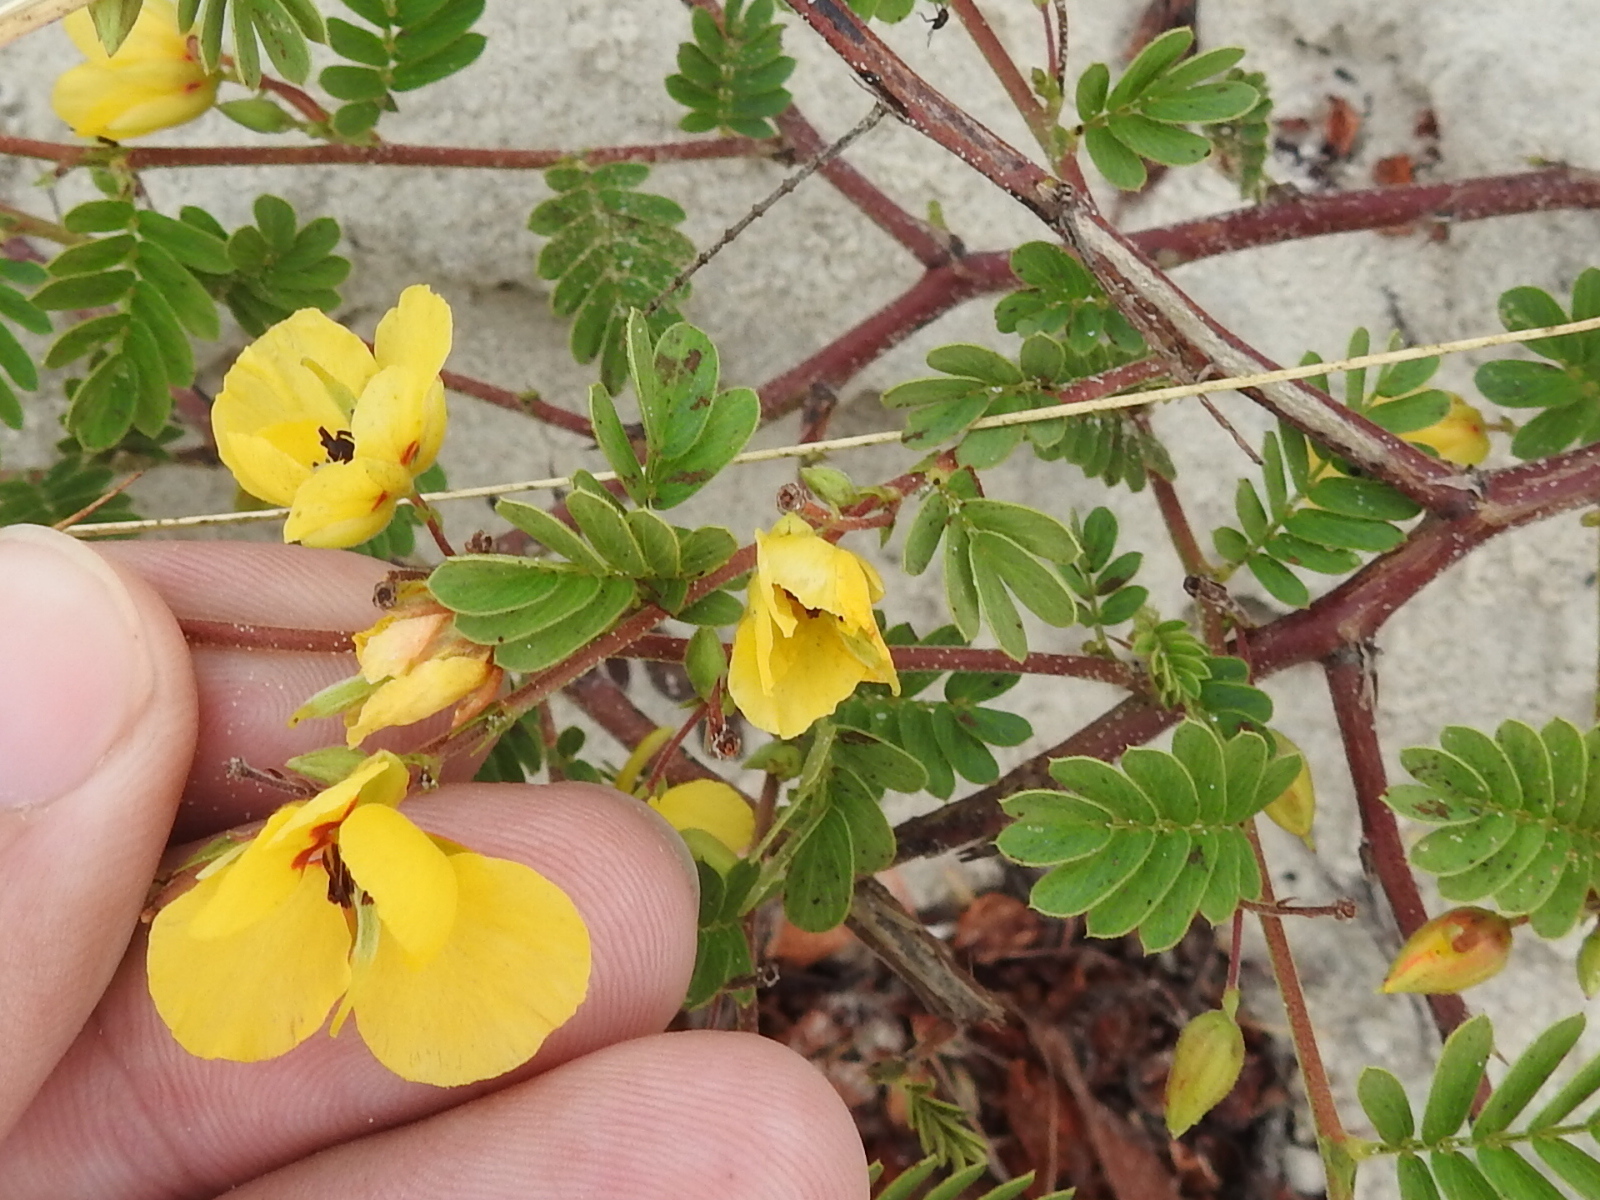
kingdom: Plantae
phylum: Tracheophyta
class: Magnoliopsida
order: Fabales
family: Fabaceae
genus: Chamaecrista
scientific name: Chamaecrista calycioides
